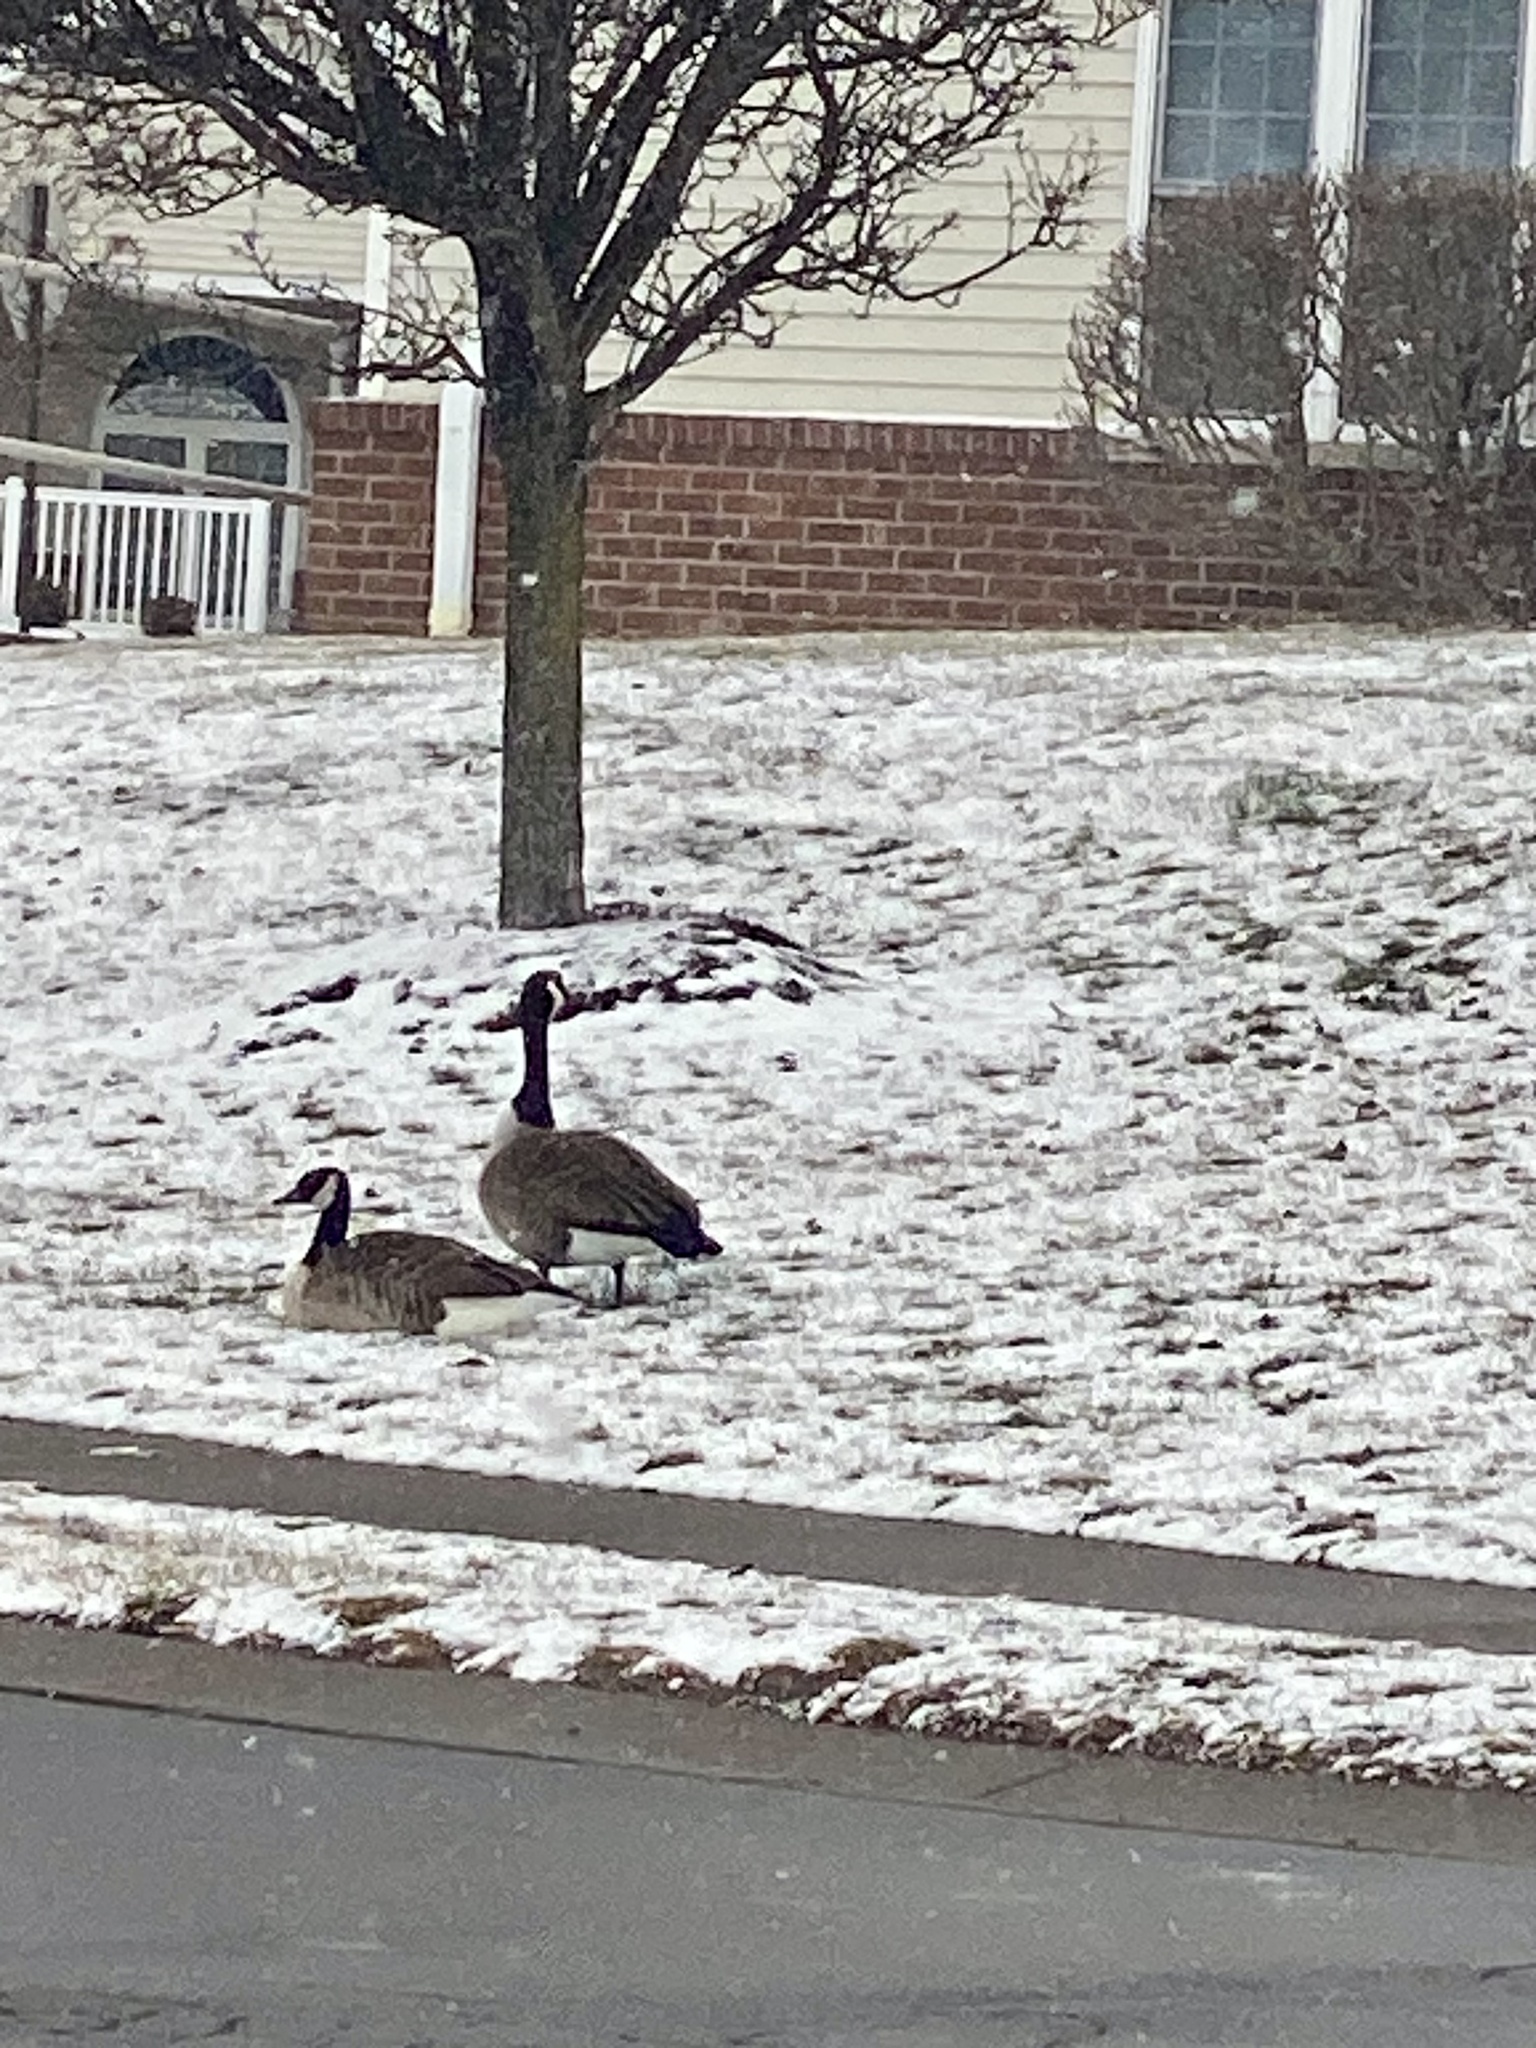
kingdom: Animalia
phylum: Chordata
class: Aves
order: Anseriformes
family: Anatidae
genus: Branta
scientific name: Branta canadensis
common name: Canada goose
